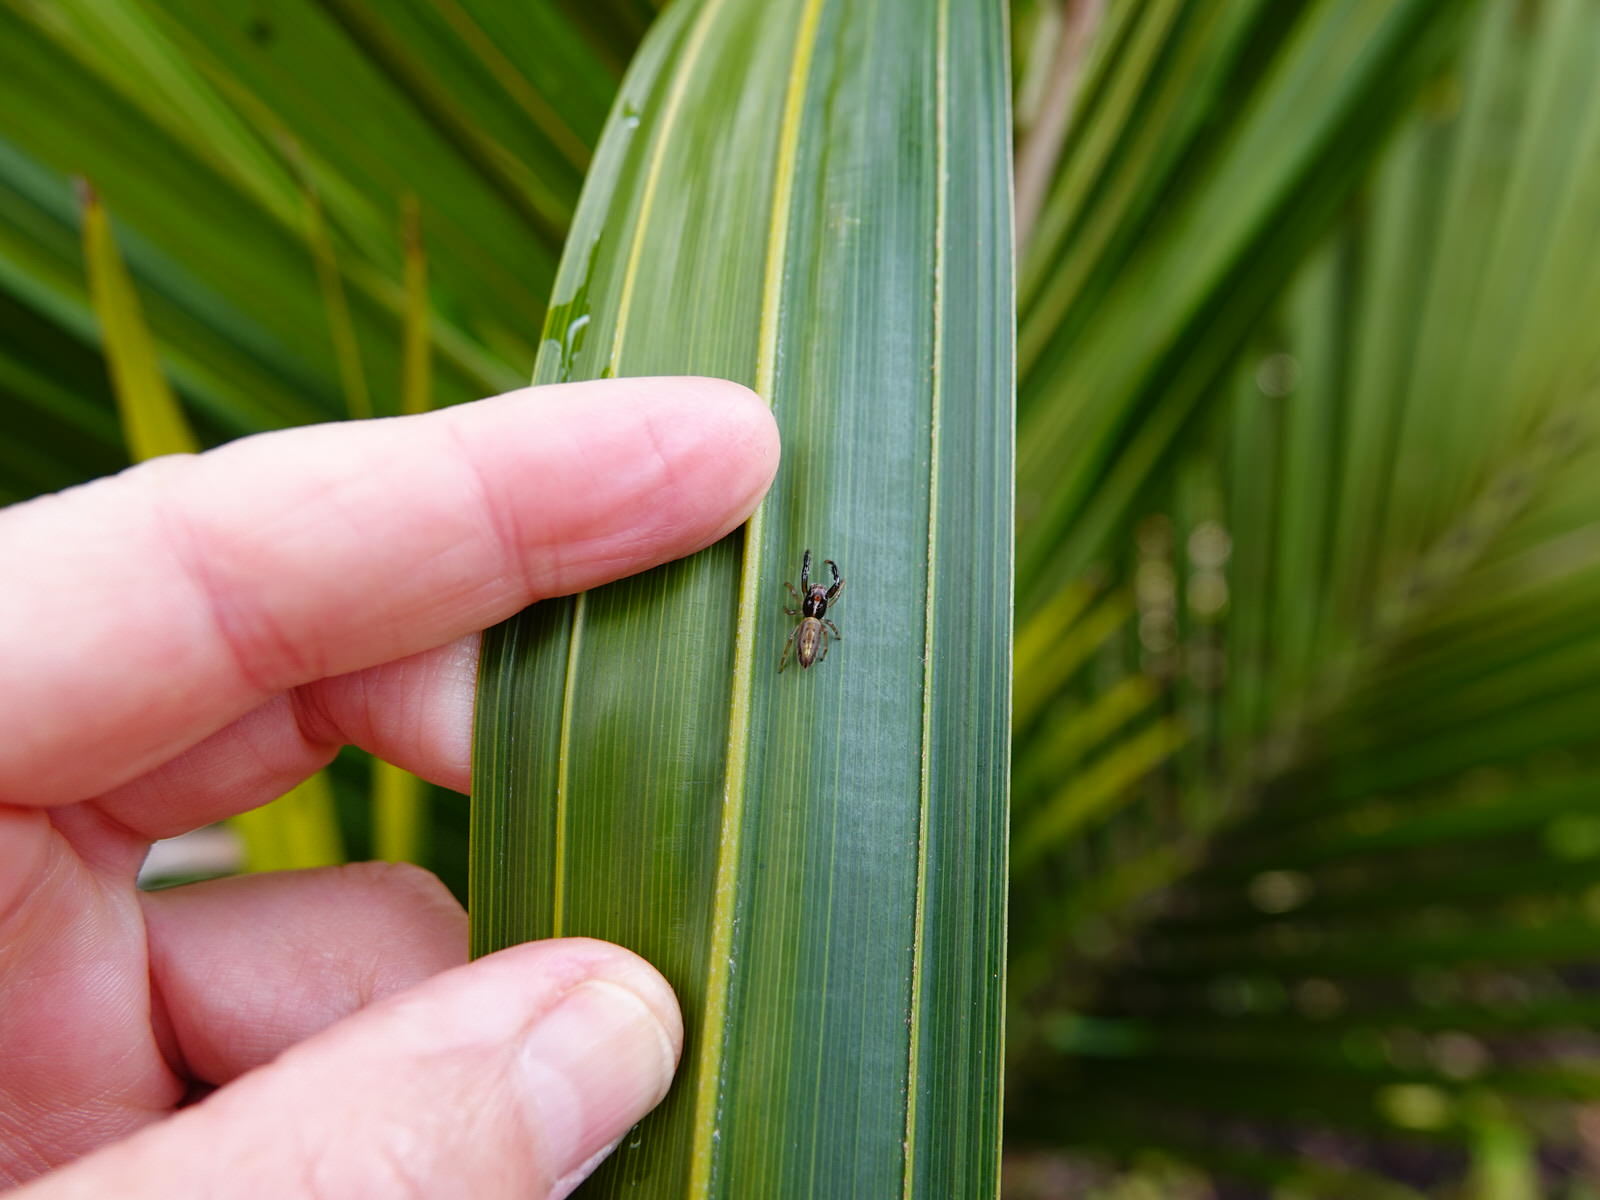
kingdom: Animalia
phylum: Arthropoda
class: Arachnida
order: Araneae
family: Salticidae
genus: Trite
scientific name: Trite planiceps
